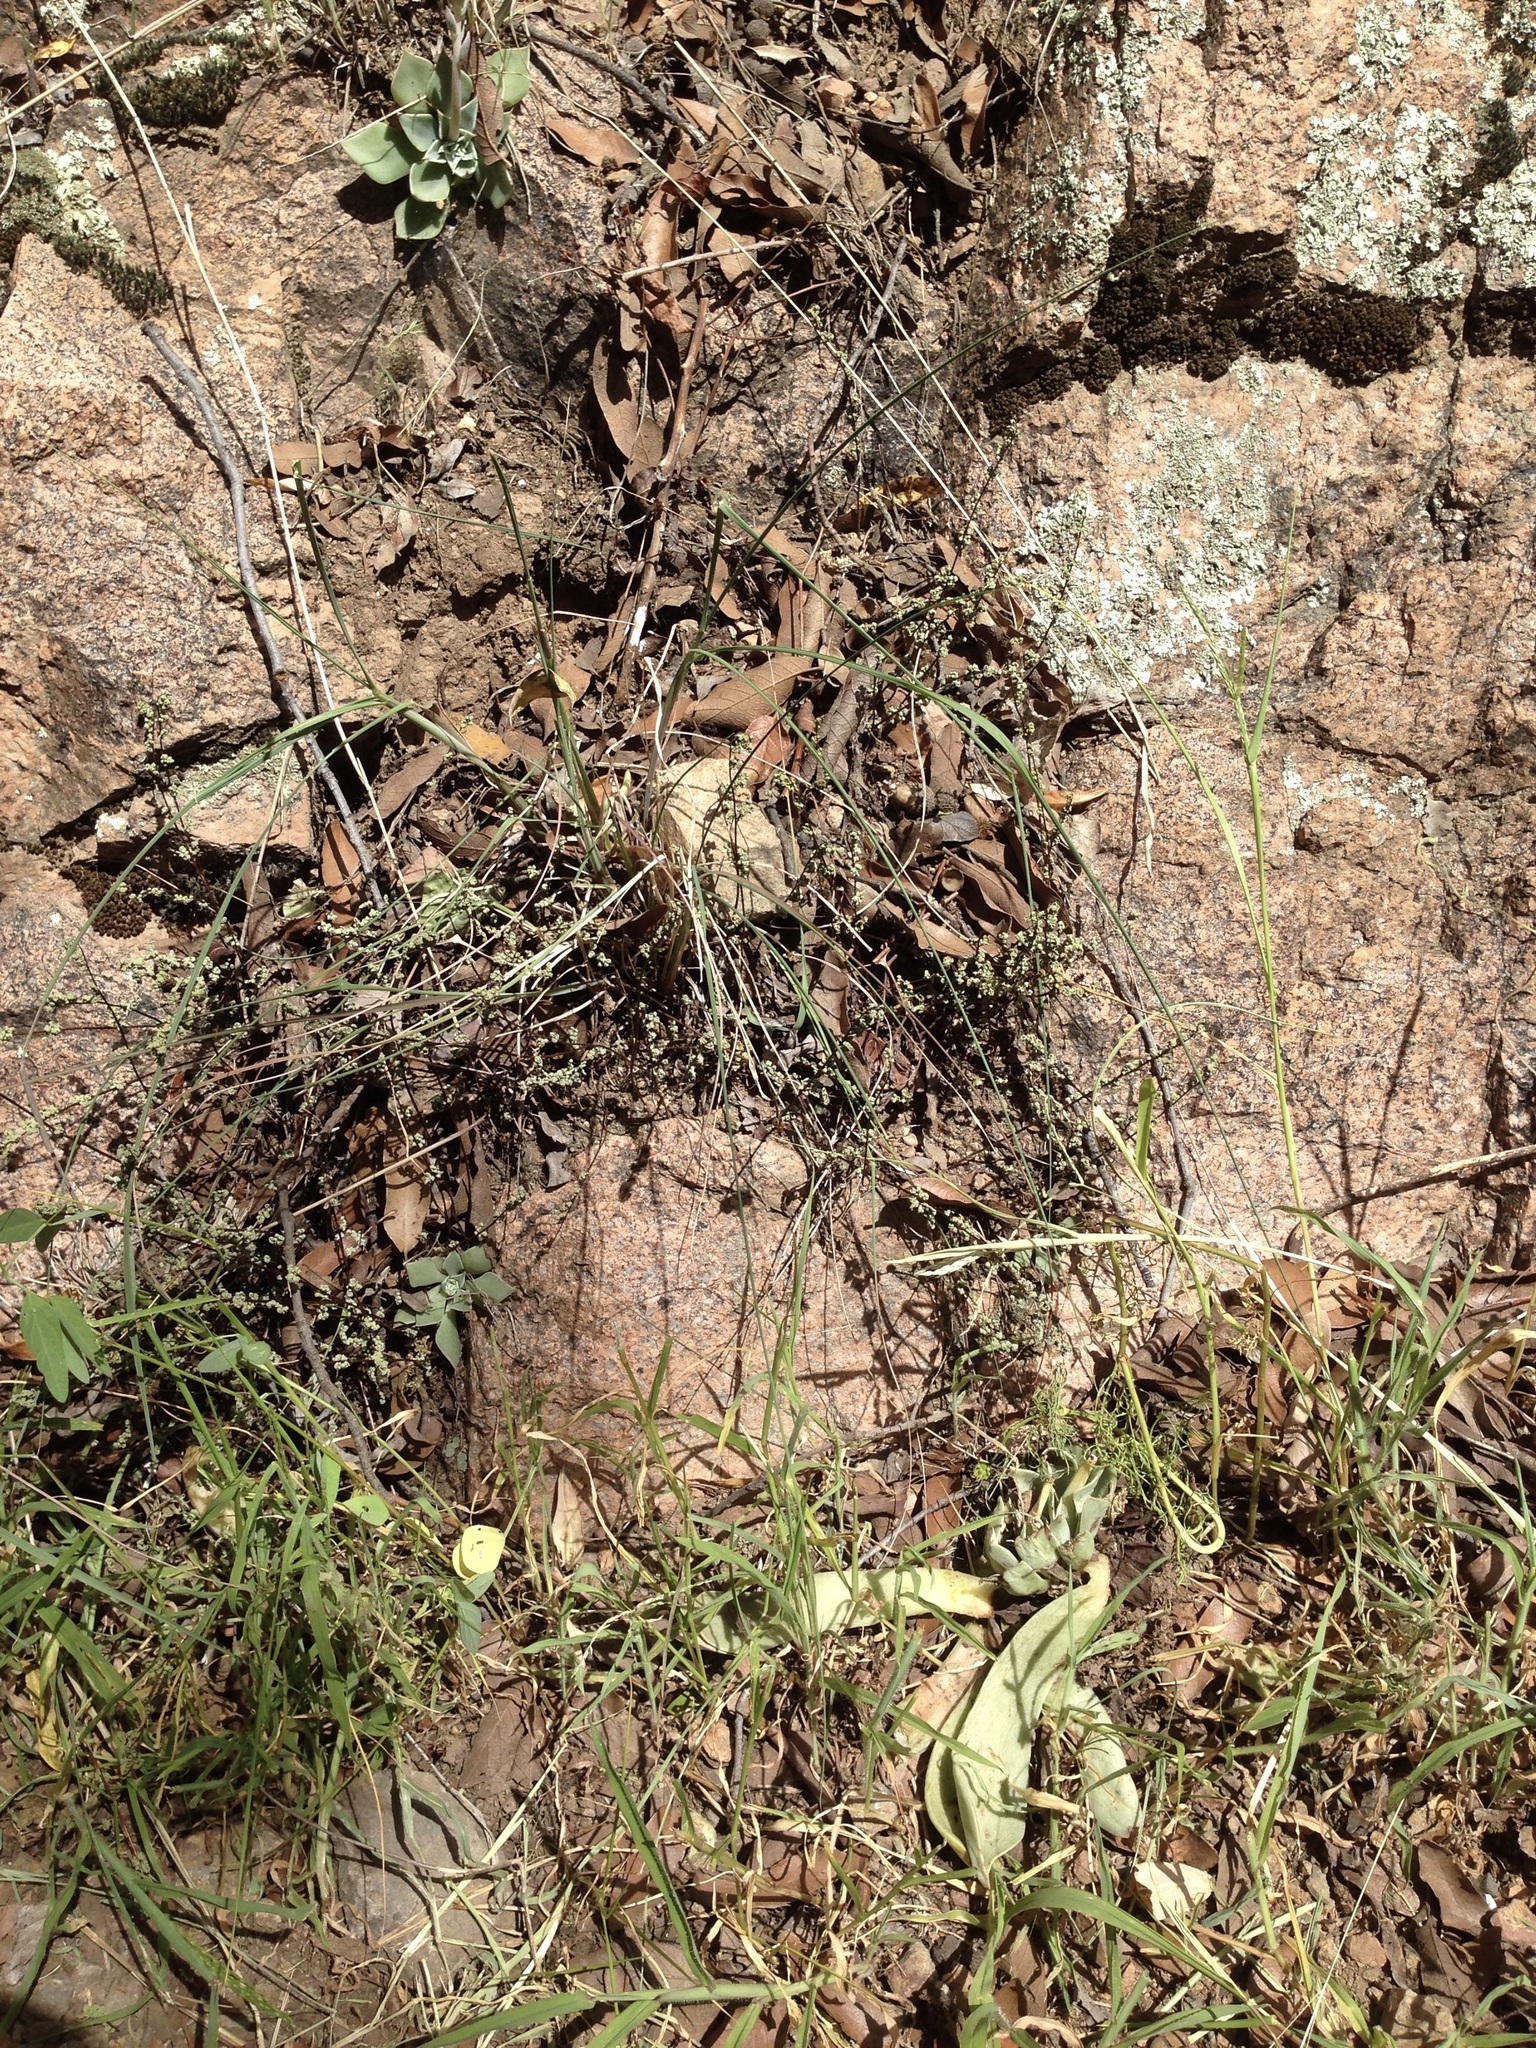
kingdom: Plantae
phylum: Tracheophyta
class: Magnoliopsida
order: Saxifragales
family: Crassulaceae
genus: Graptopetalum
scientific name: Graptopetalum bartramii
